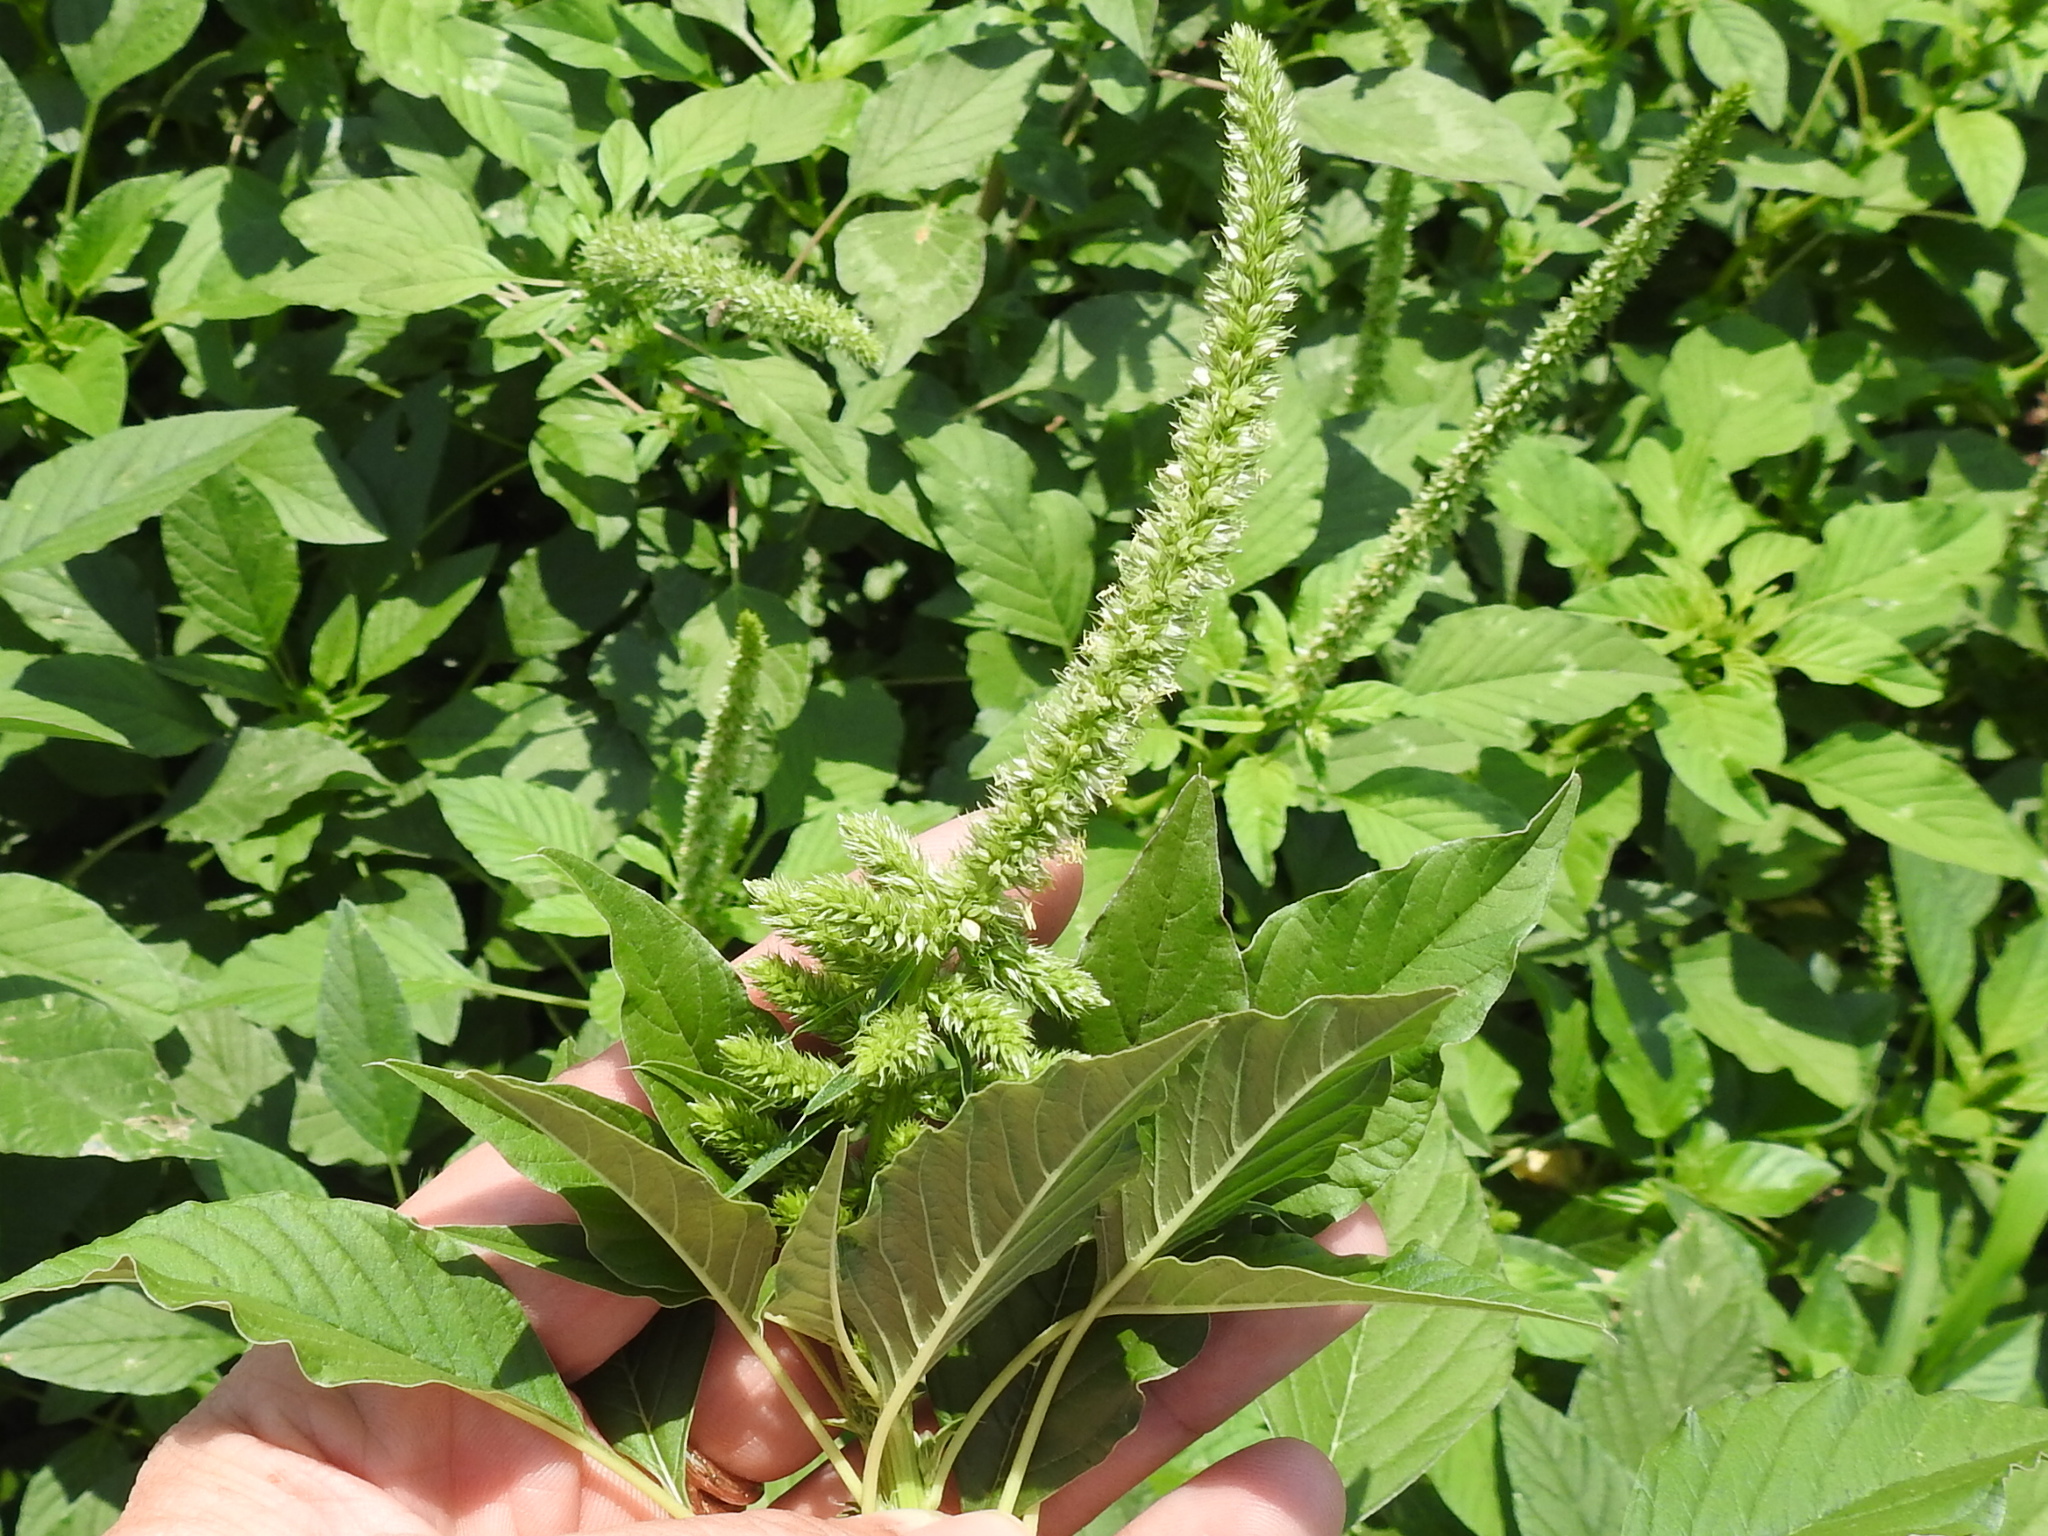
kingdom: Plantae
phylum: Tracheophyta
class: Magnoliopsida
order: Caryophyllales
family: Amaranthaceae
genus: Amaranthus
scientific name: Amaranthus palmeri
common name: Dioecious amaranth
